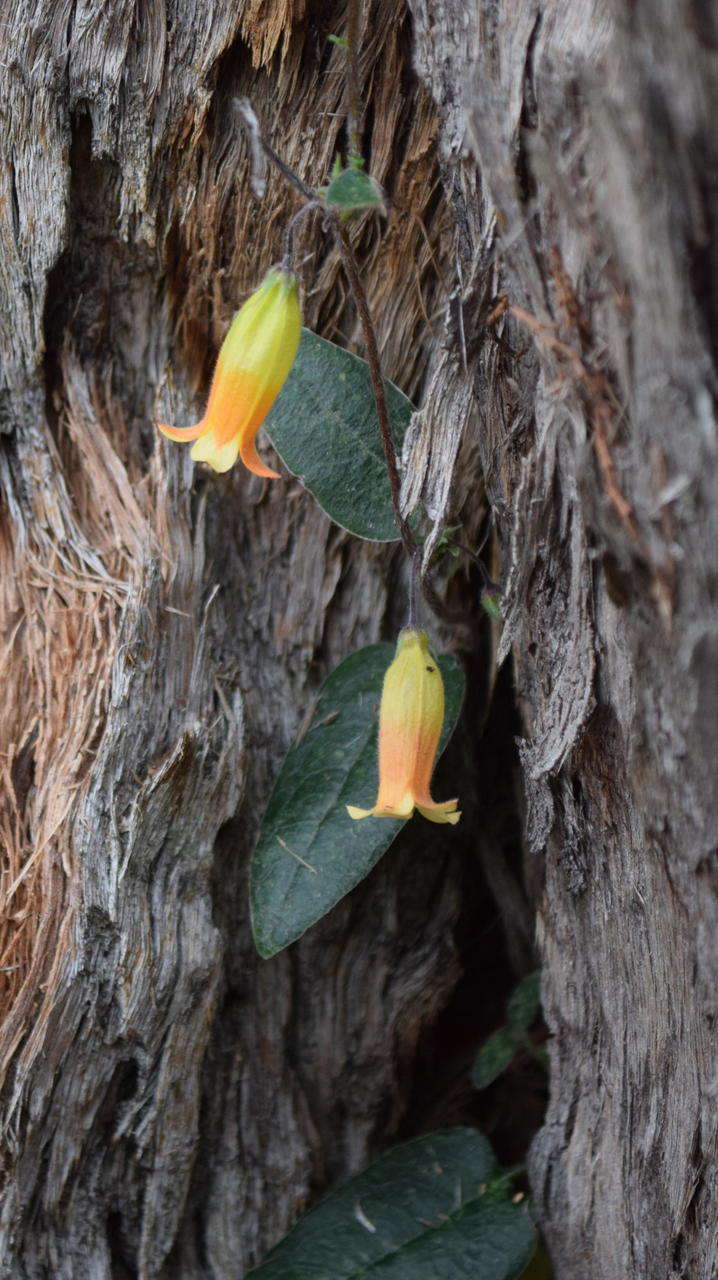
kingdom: Plantae
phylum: Tracheophyta
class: Magnoliopsida
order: Apiales
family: Pittosporaceae
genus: Marianthus
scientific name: Marianthus bignoniaceus
